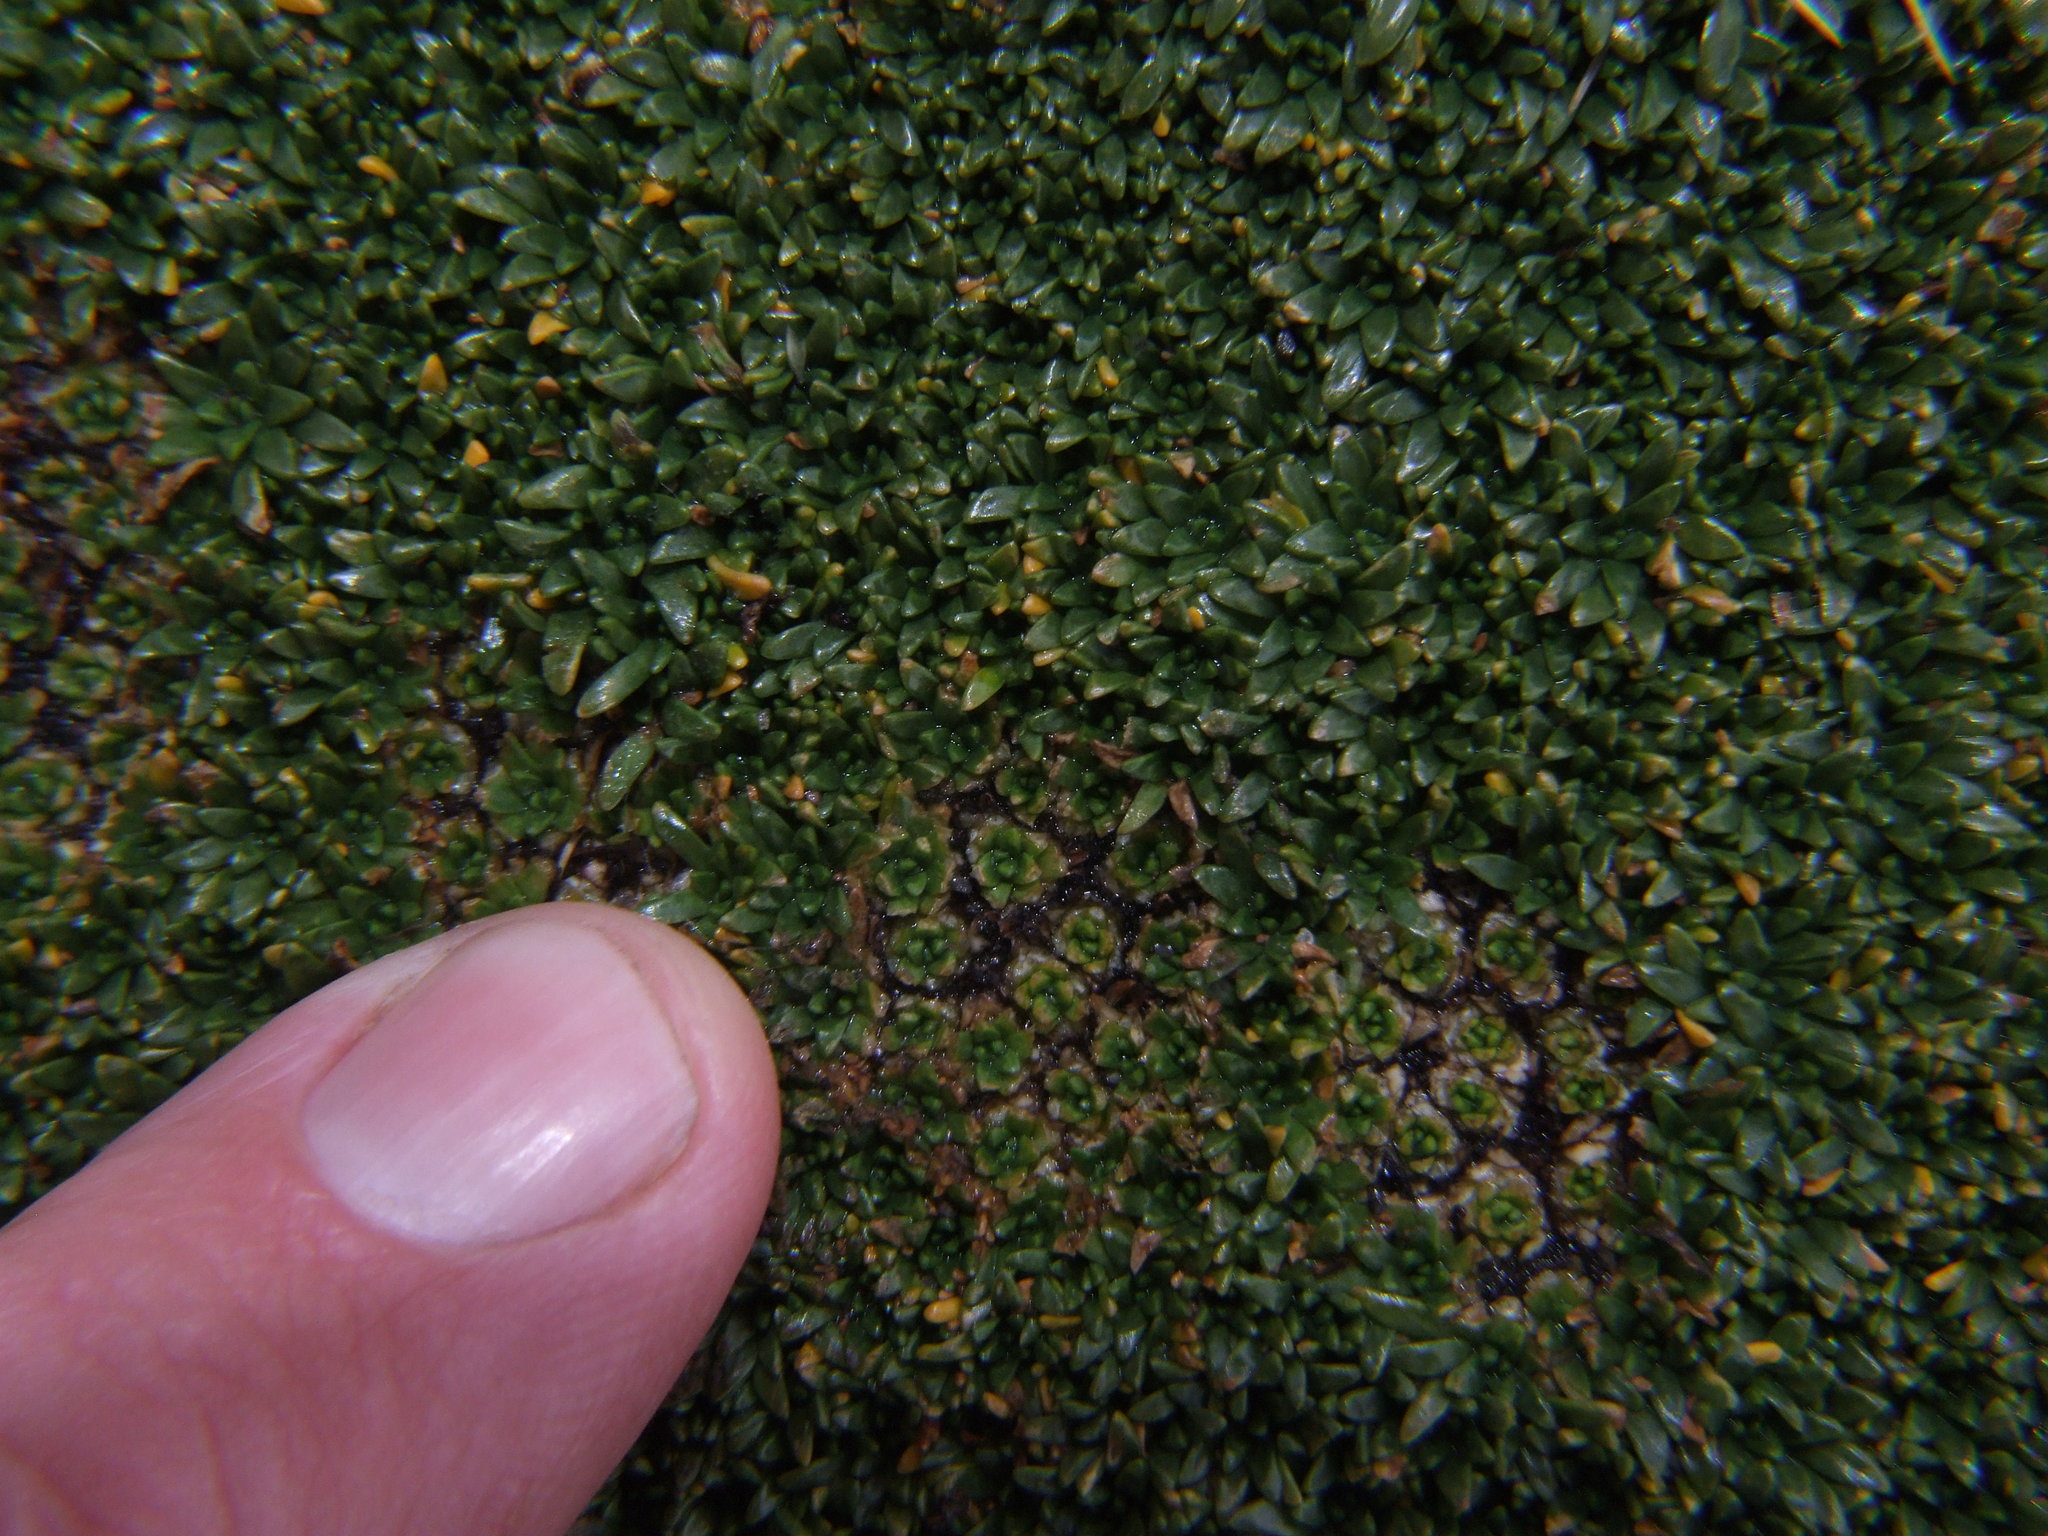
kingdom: Plantae
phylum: Tracheophyta
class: Magnoliopsida
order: Apiales
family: Apiaceae
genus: Azorella
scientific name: Azorella diapensioides
